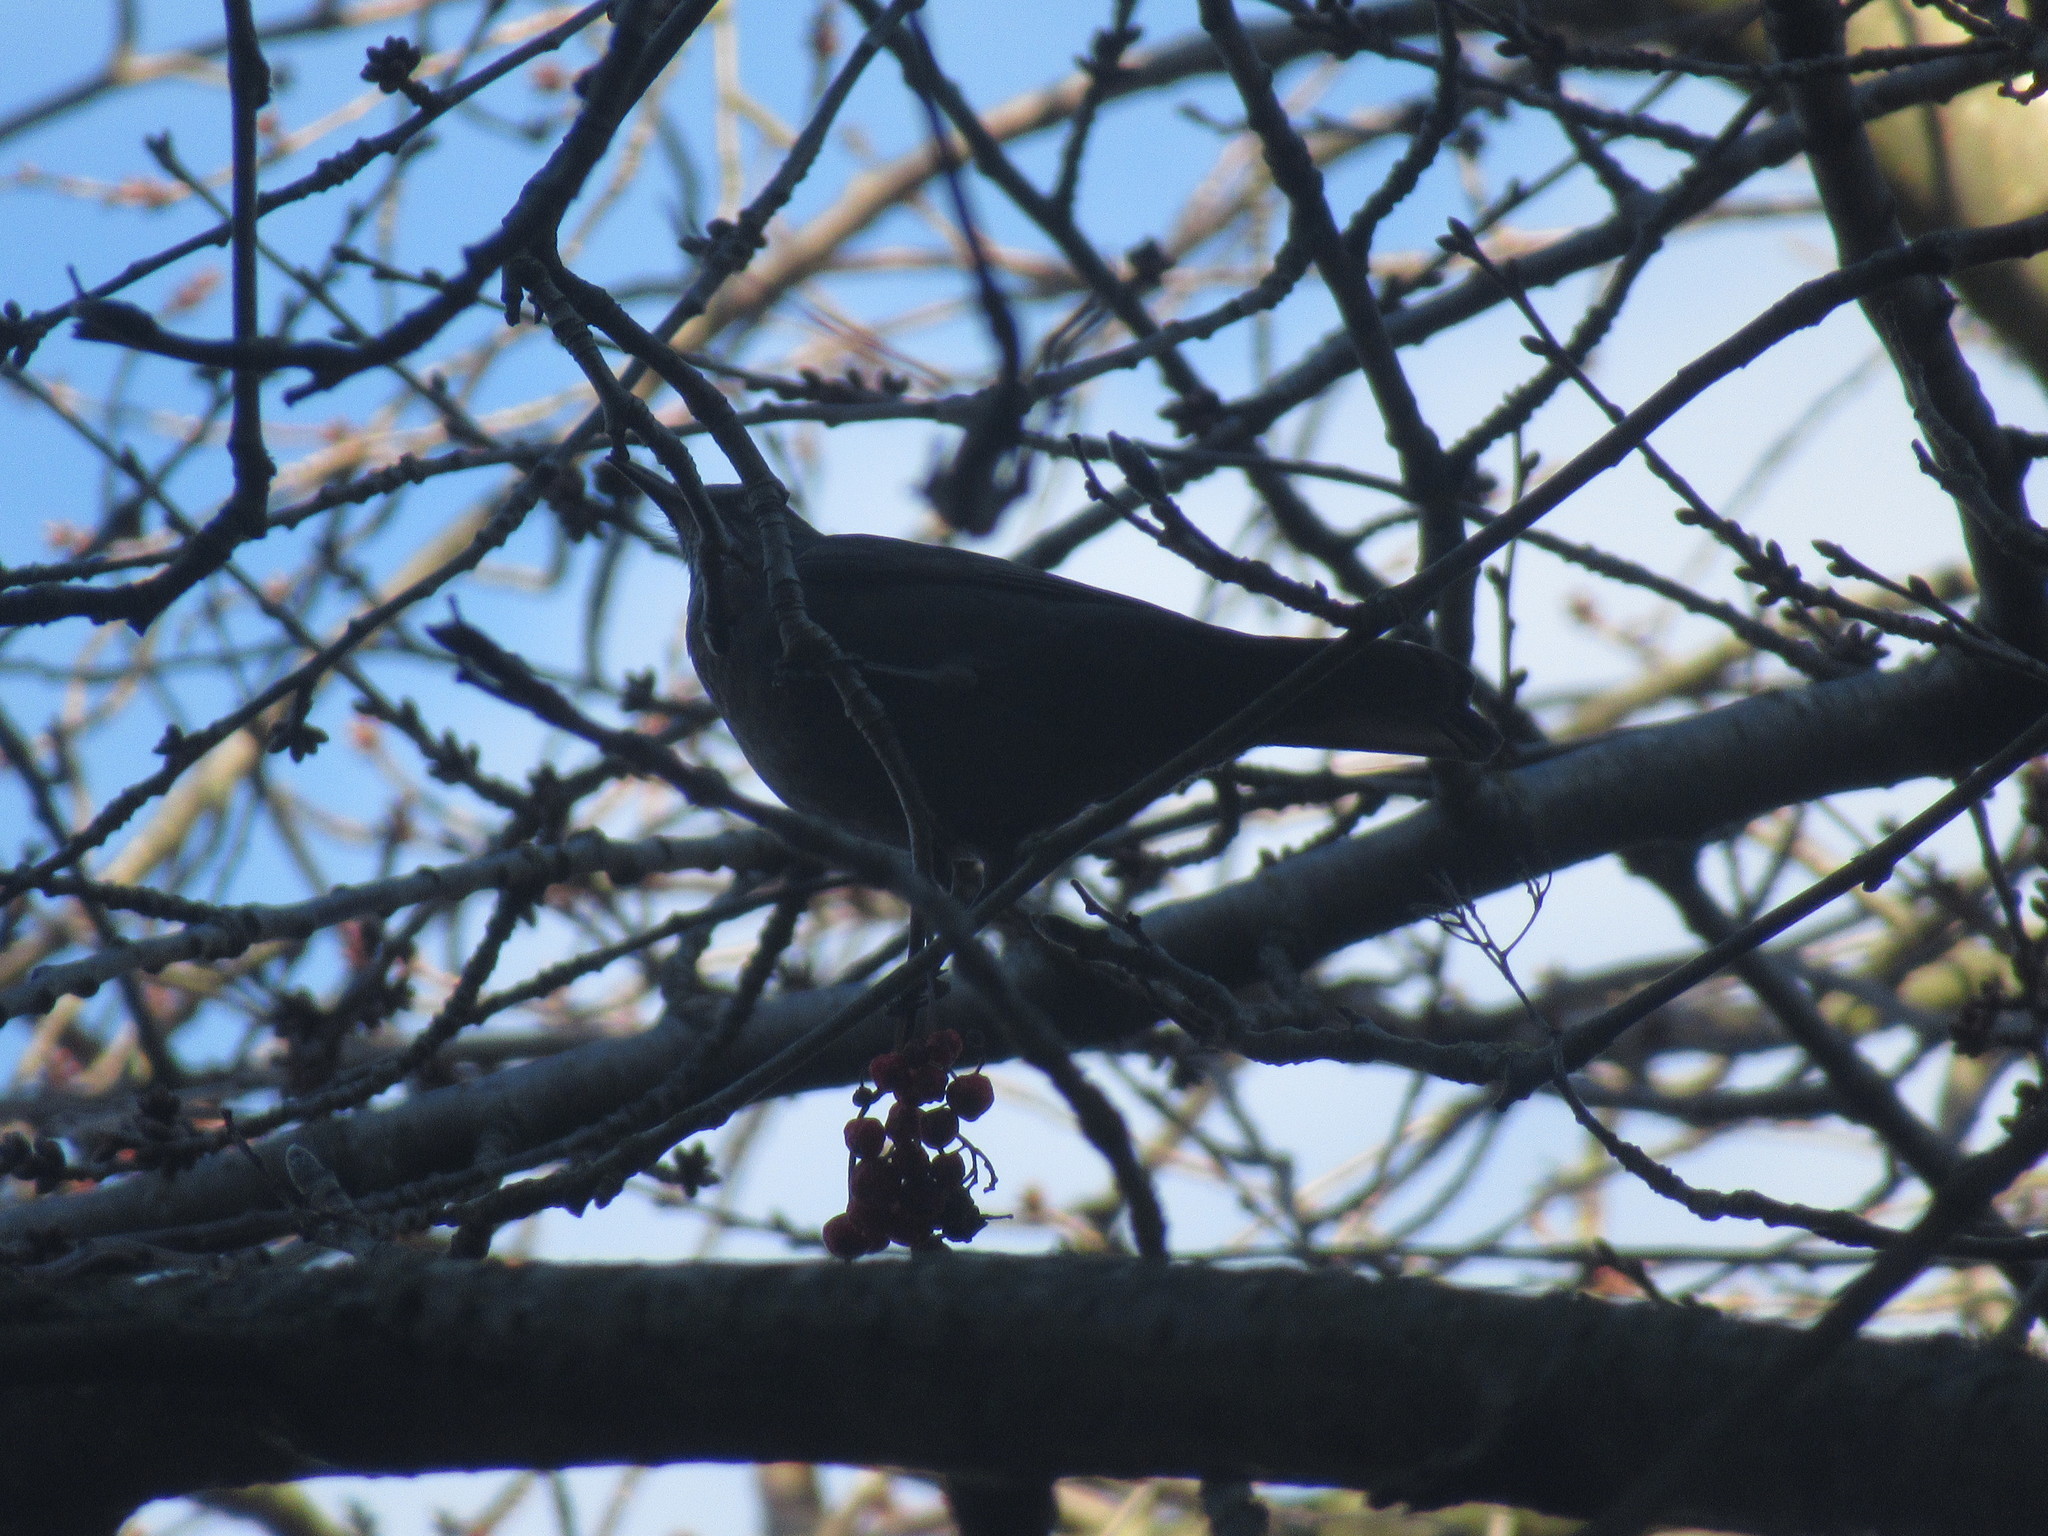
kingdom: Animalia
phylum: Chordata
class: Aves
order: Passeriformes
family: Turdidae
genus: Turdus
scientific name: Turdus merula
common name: Common blackbird
